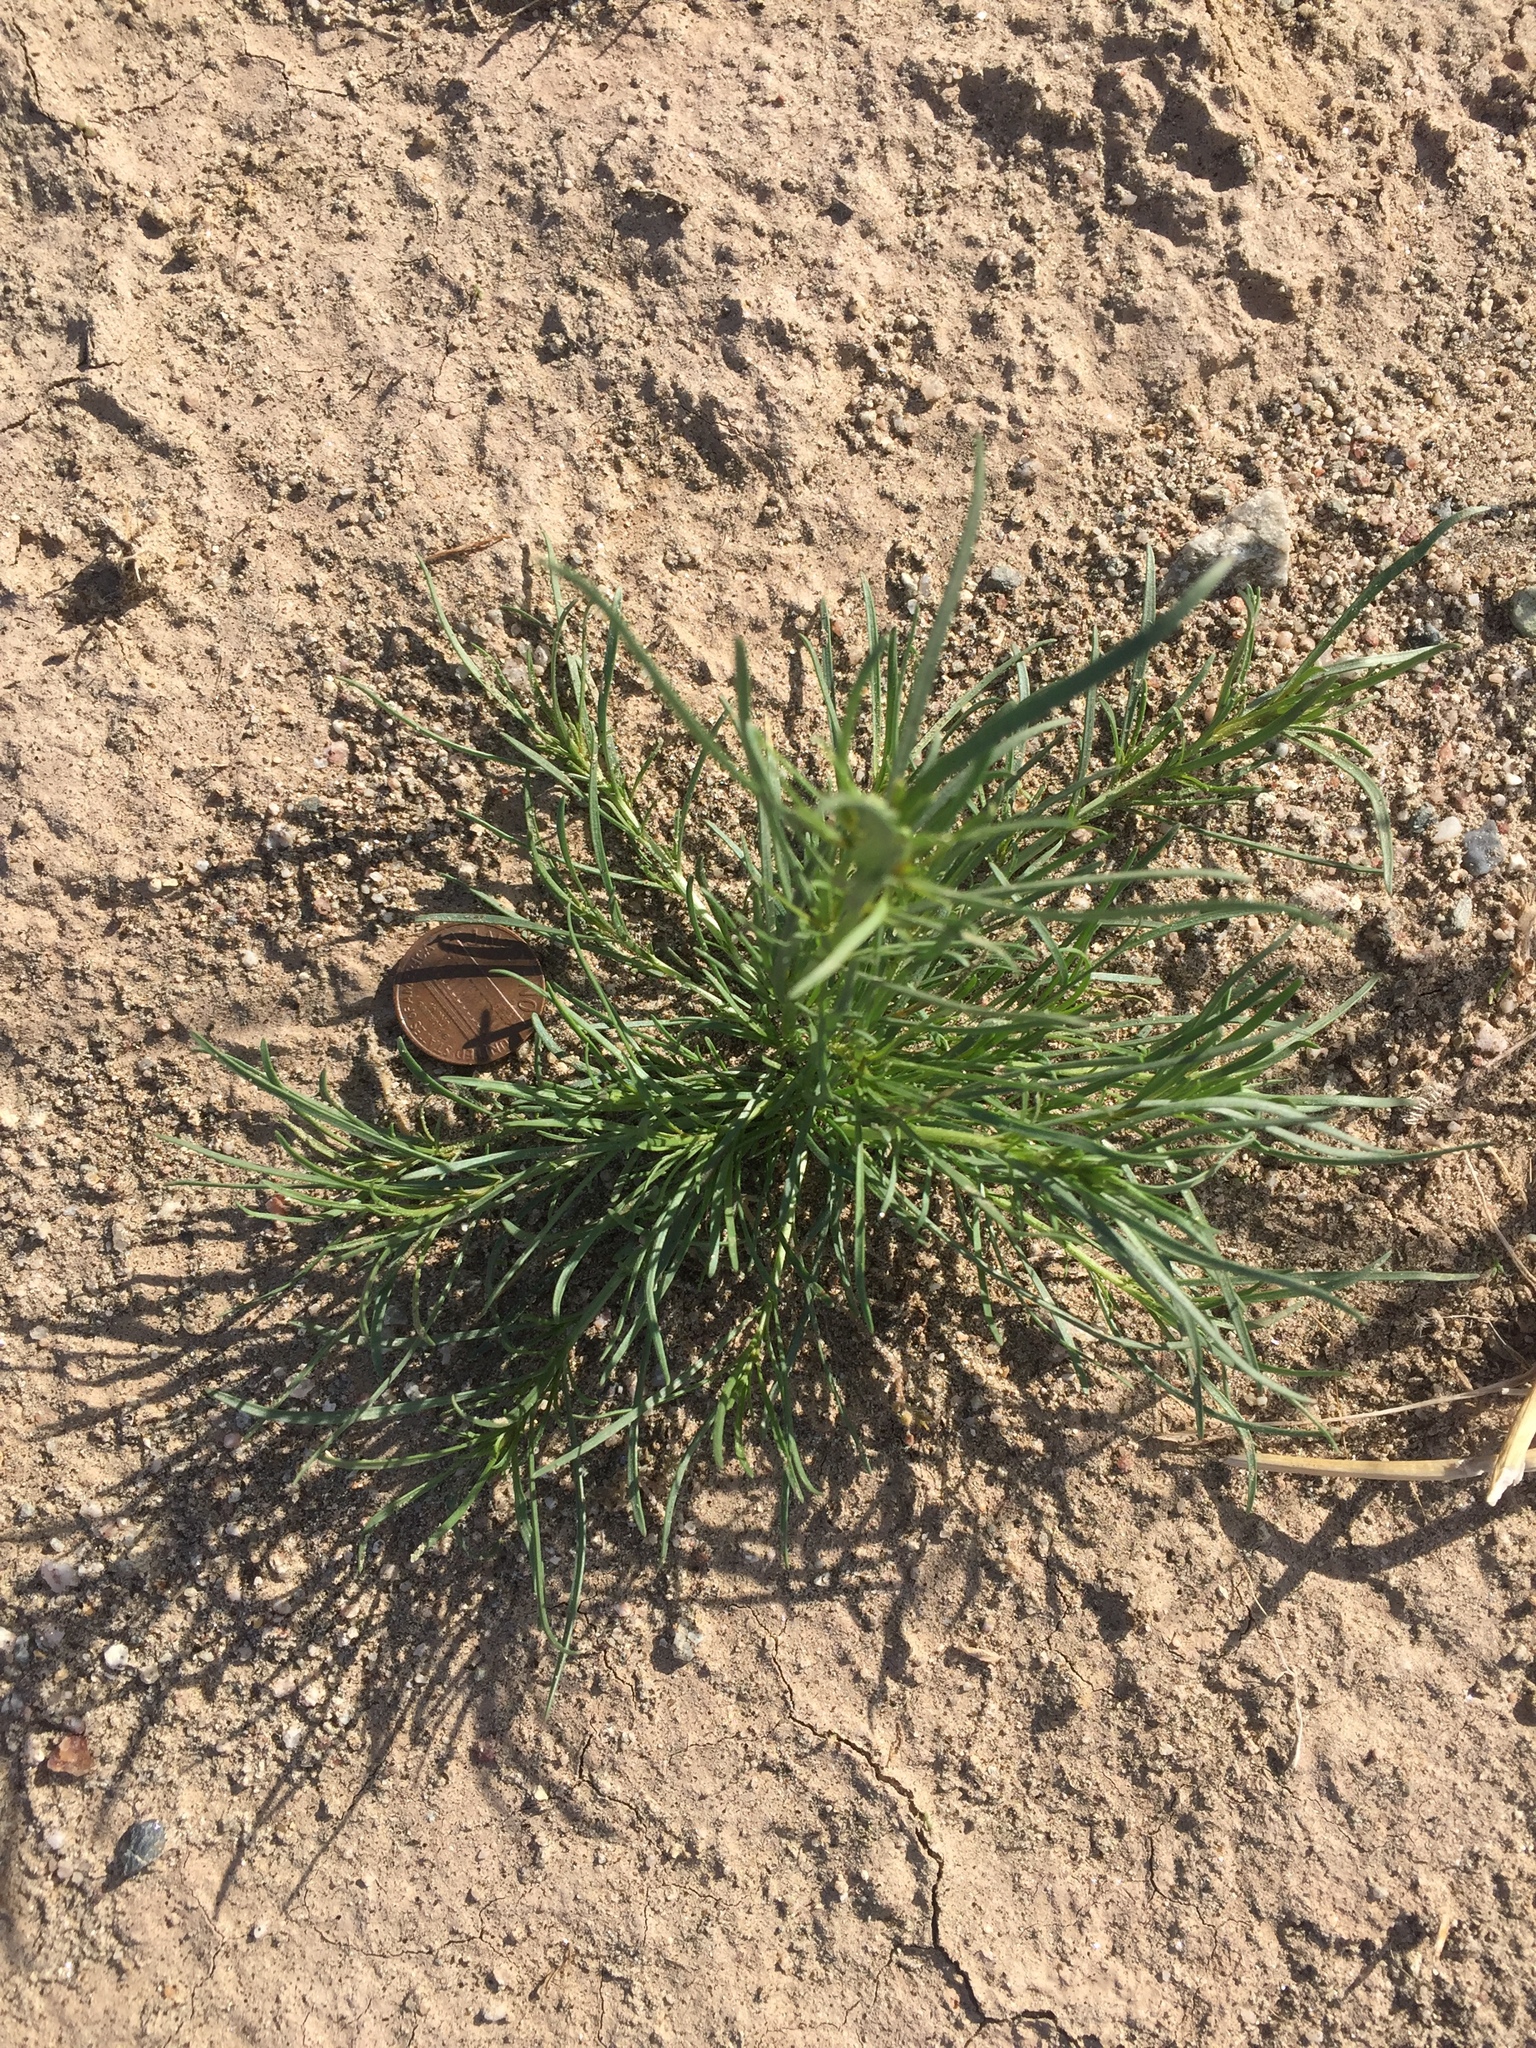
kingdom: Plantae
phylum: Tracheophyta
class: Magnoliopsida
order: Brassicales
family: Resedaceae
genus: Oligomeris
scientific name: Oligomeris linifolia
